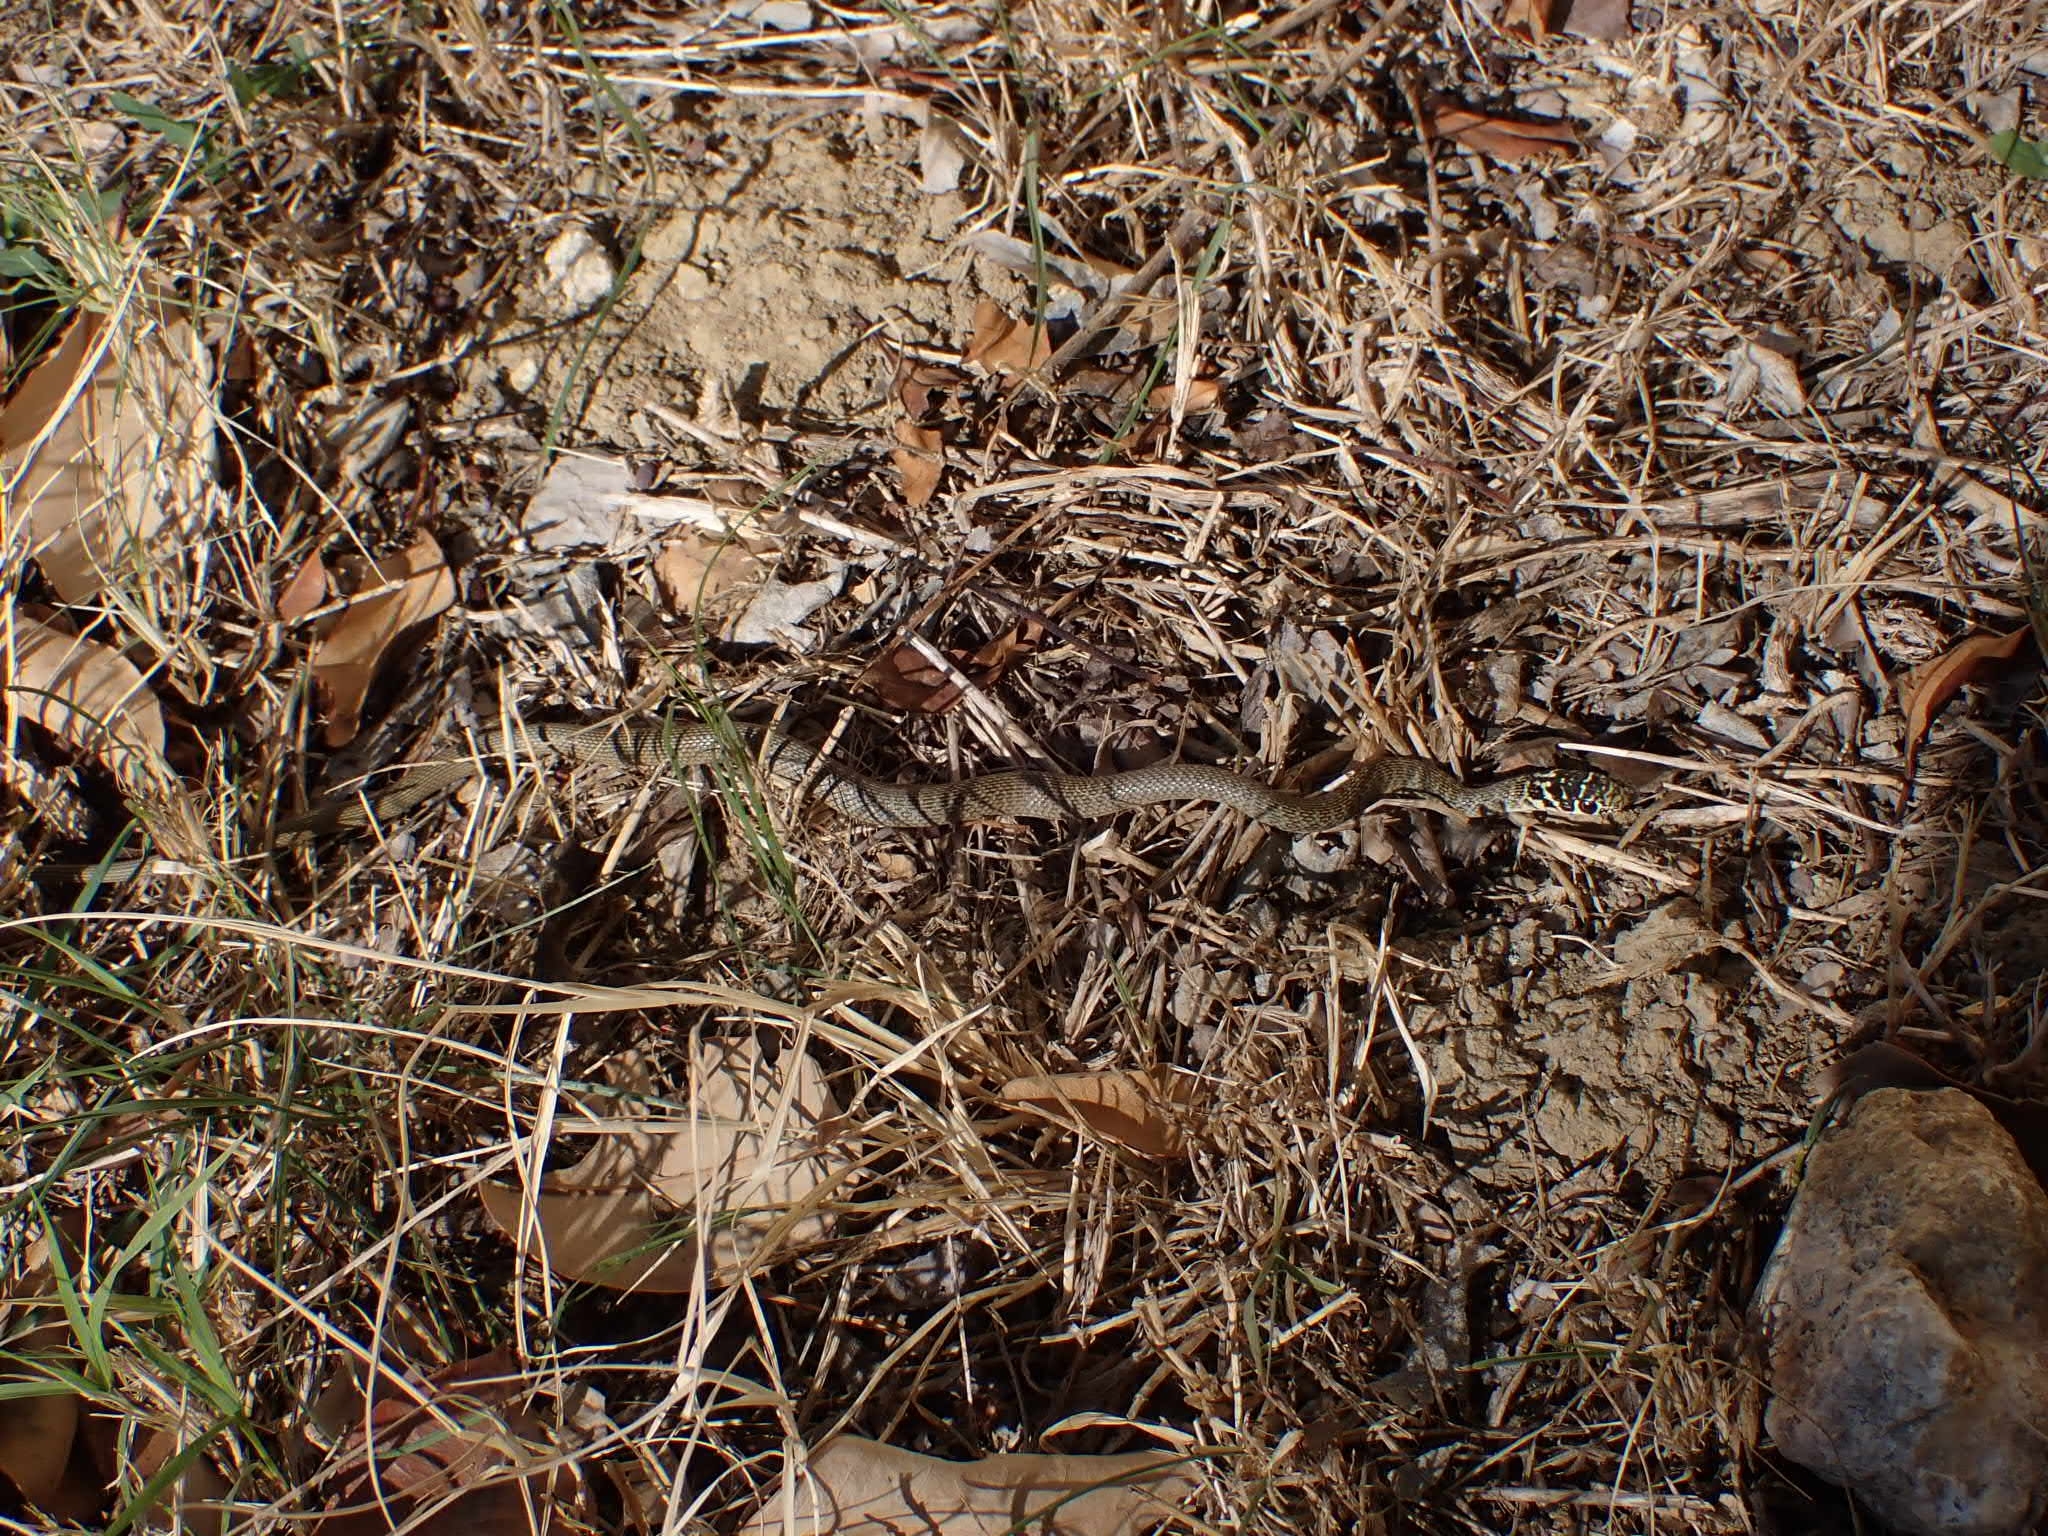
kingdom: Animalia
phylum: Chordata
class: Squamata
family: Colubridae
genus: Hierophis
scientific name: Hierophis viridiflavus
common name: Green whip snake
